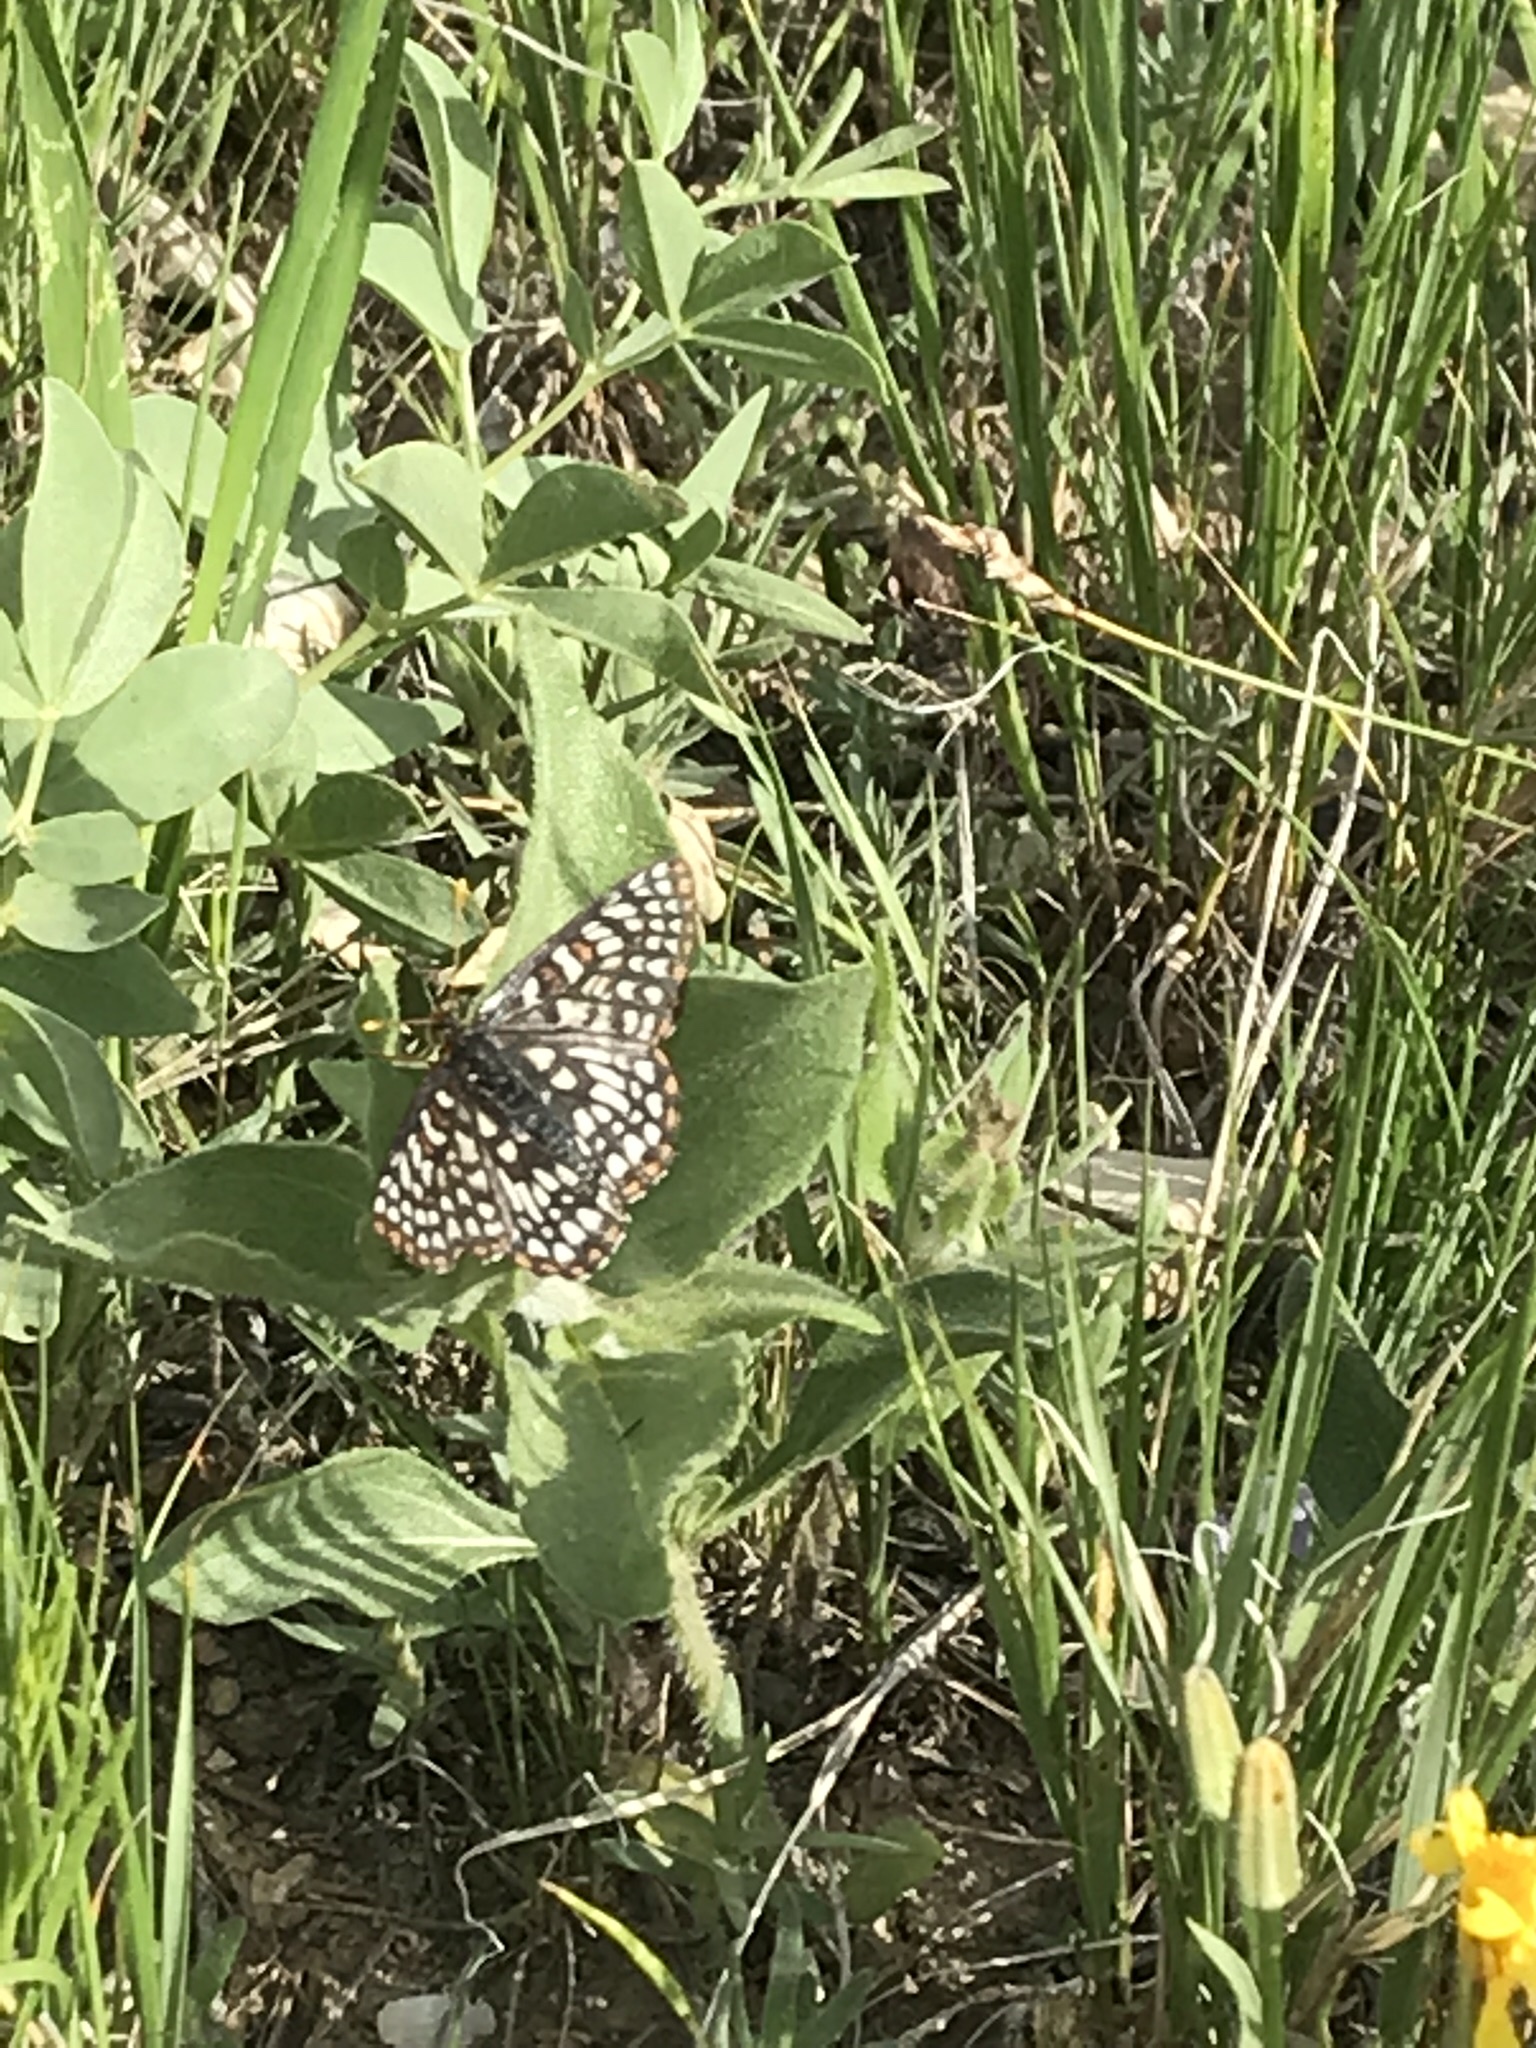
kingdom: Animalia
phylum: Arthropoda
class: Insecta
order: Lepidoptera
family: Nymphalidae
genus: Occidryas
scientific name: Occidryas anicia
